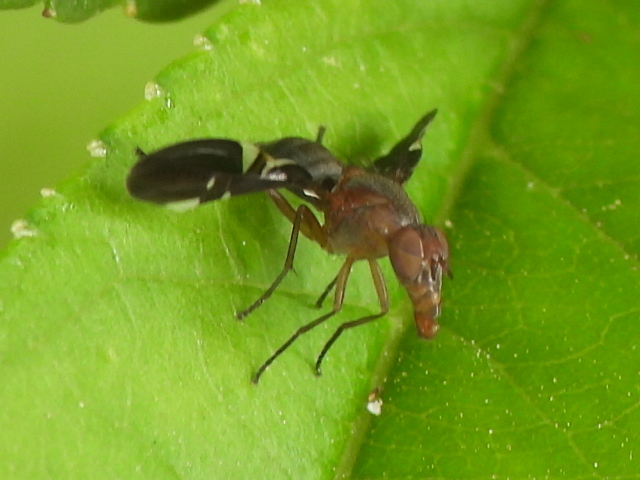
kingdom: Animalia
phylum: Arthropoda
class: Insecta
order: Diptera
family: Ulidiidae
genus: Delphinia
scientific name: Delphinia picta
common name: Common picture-winged fly
